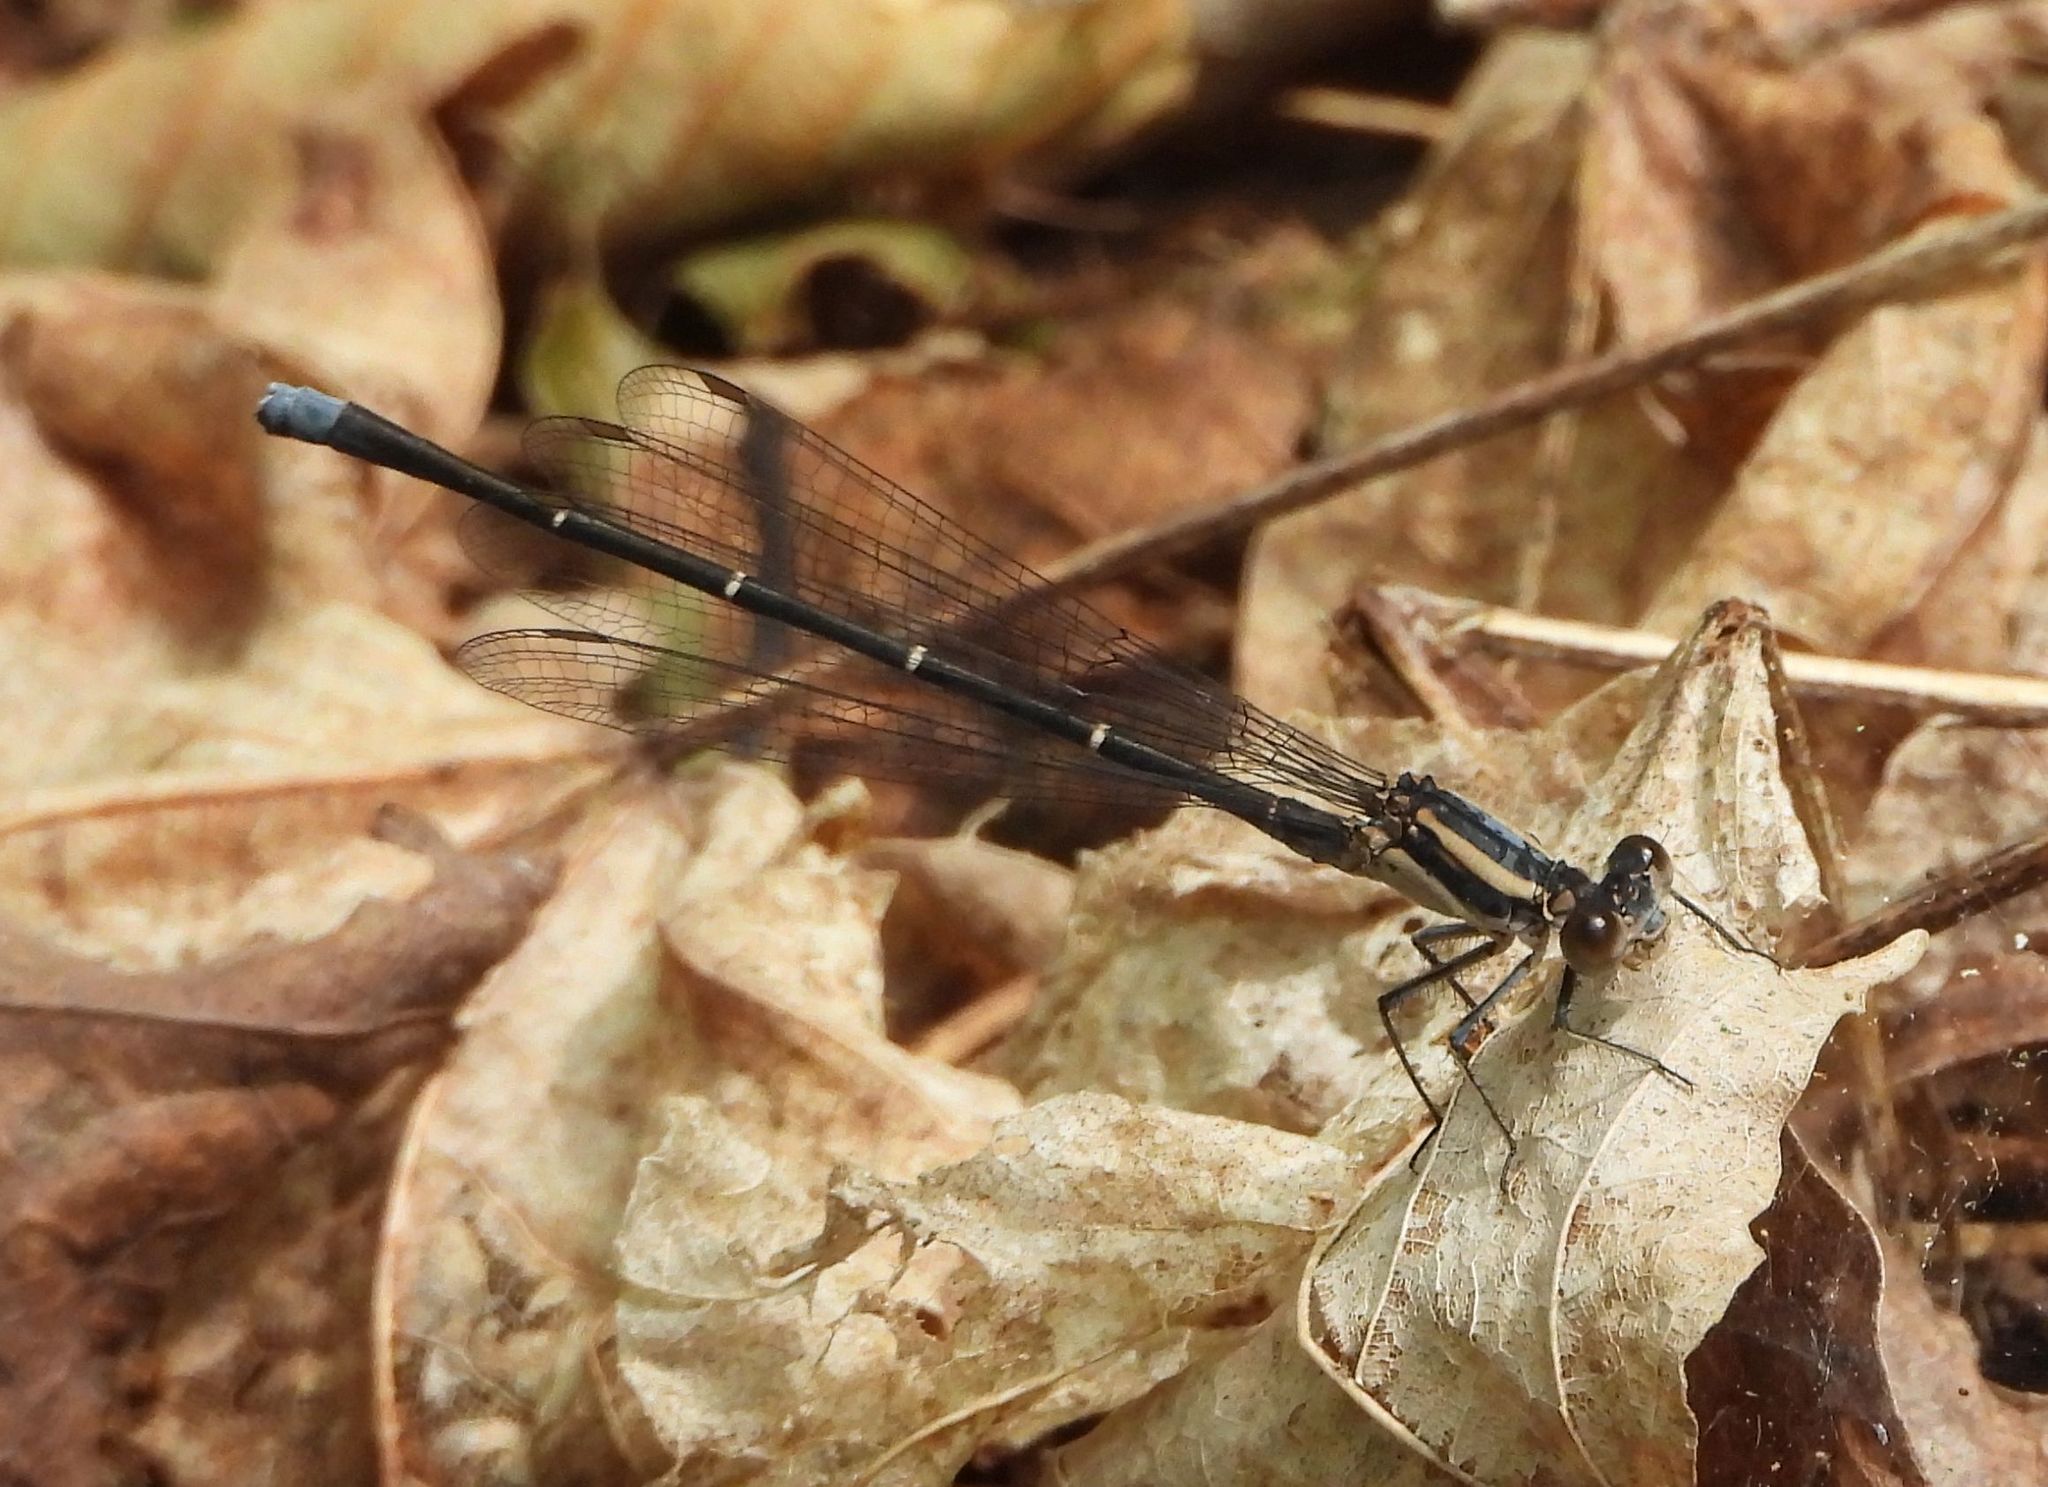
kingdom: Animalia
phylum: Arthropoda
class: Insecta
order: Odonata
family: Coenagrionidae
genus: Argia
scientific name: Argia moesta
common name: Powdered dancer
